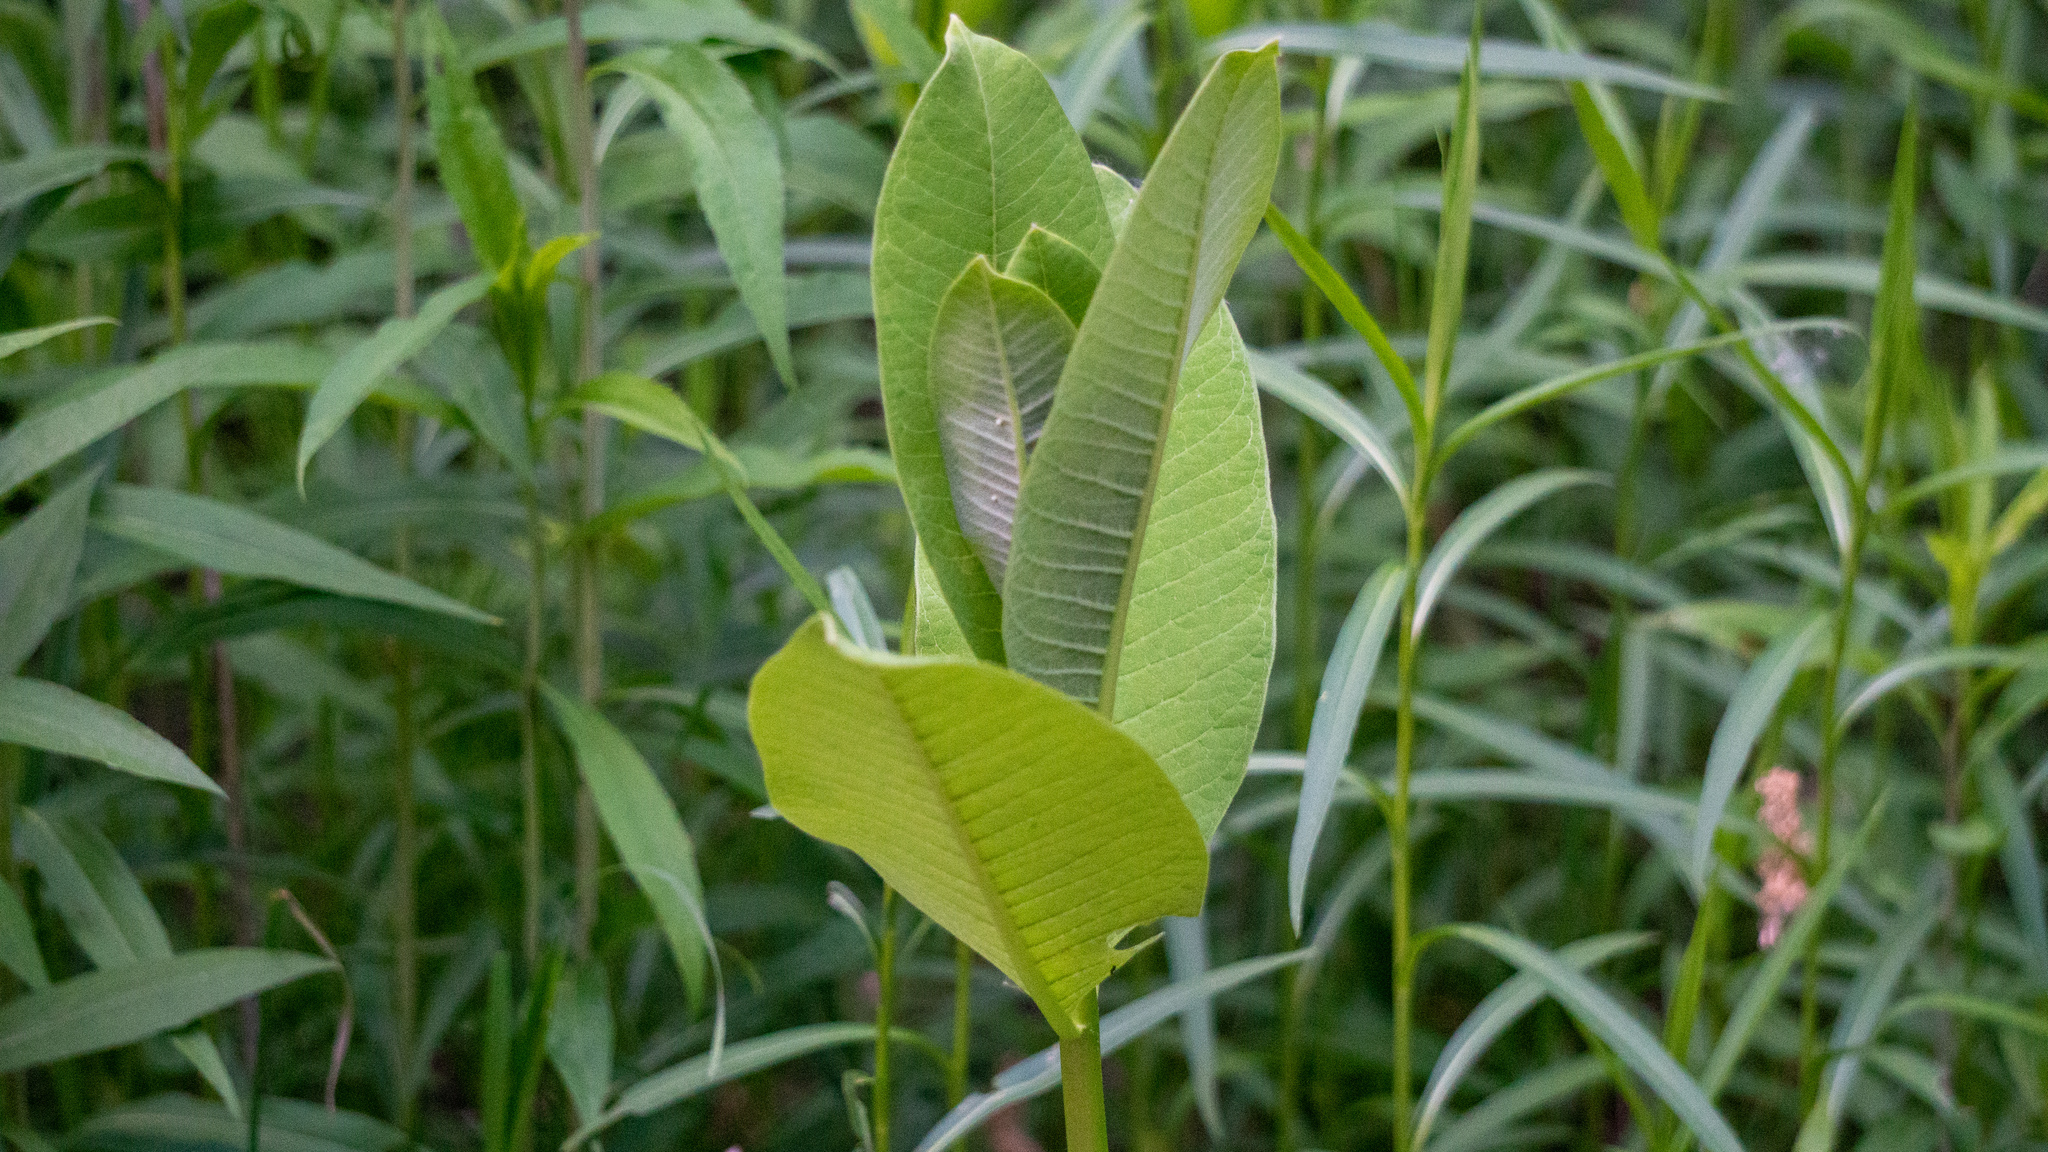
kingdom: Plantae
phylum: Tracheophyta
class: Magnoliopsida
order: Gentianales
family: Apocynaceae
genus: Asclepias
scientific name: Asclepias syriaca
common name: Common milkweed
